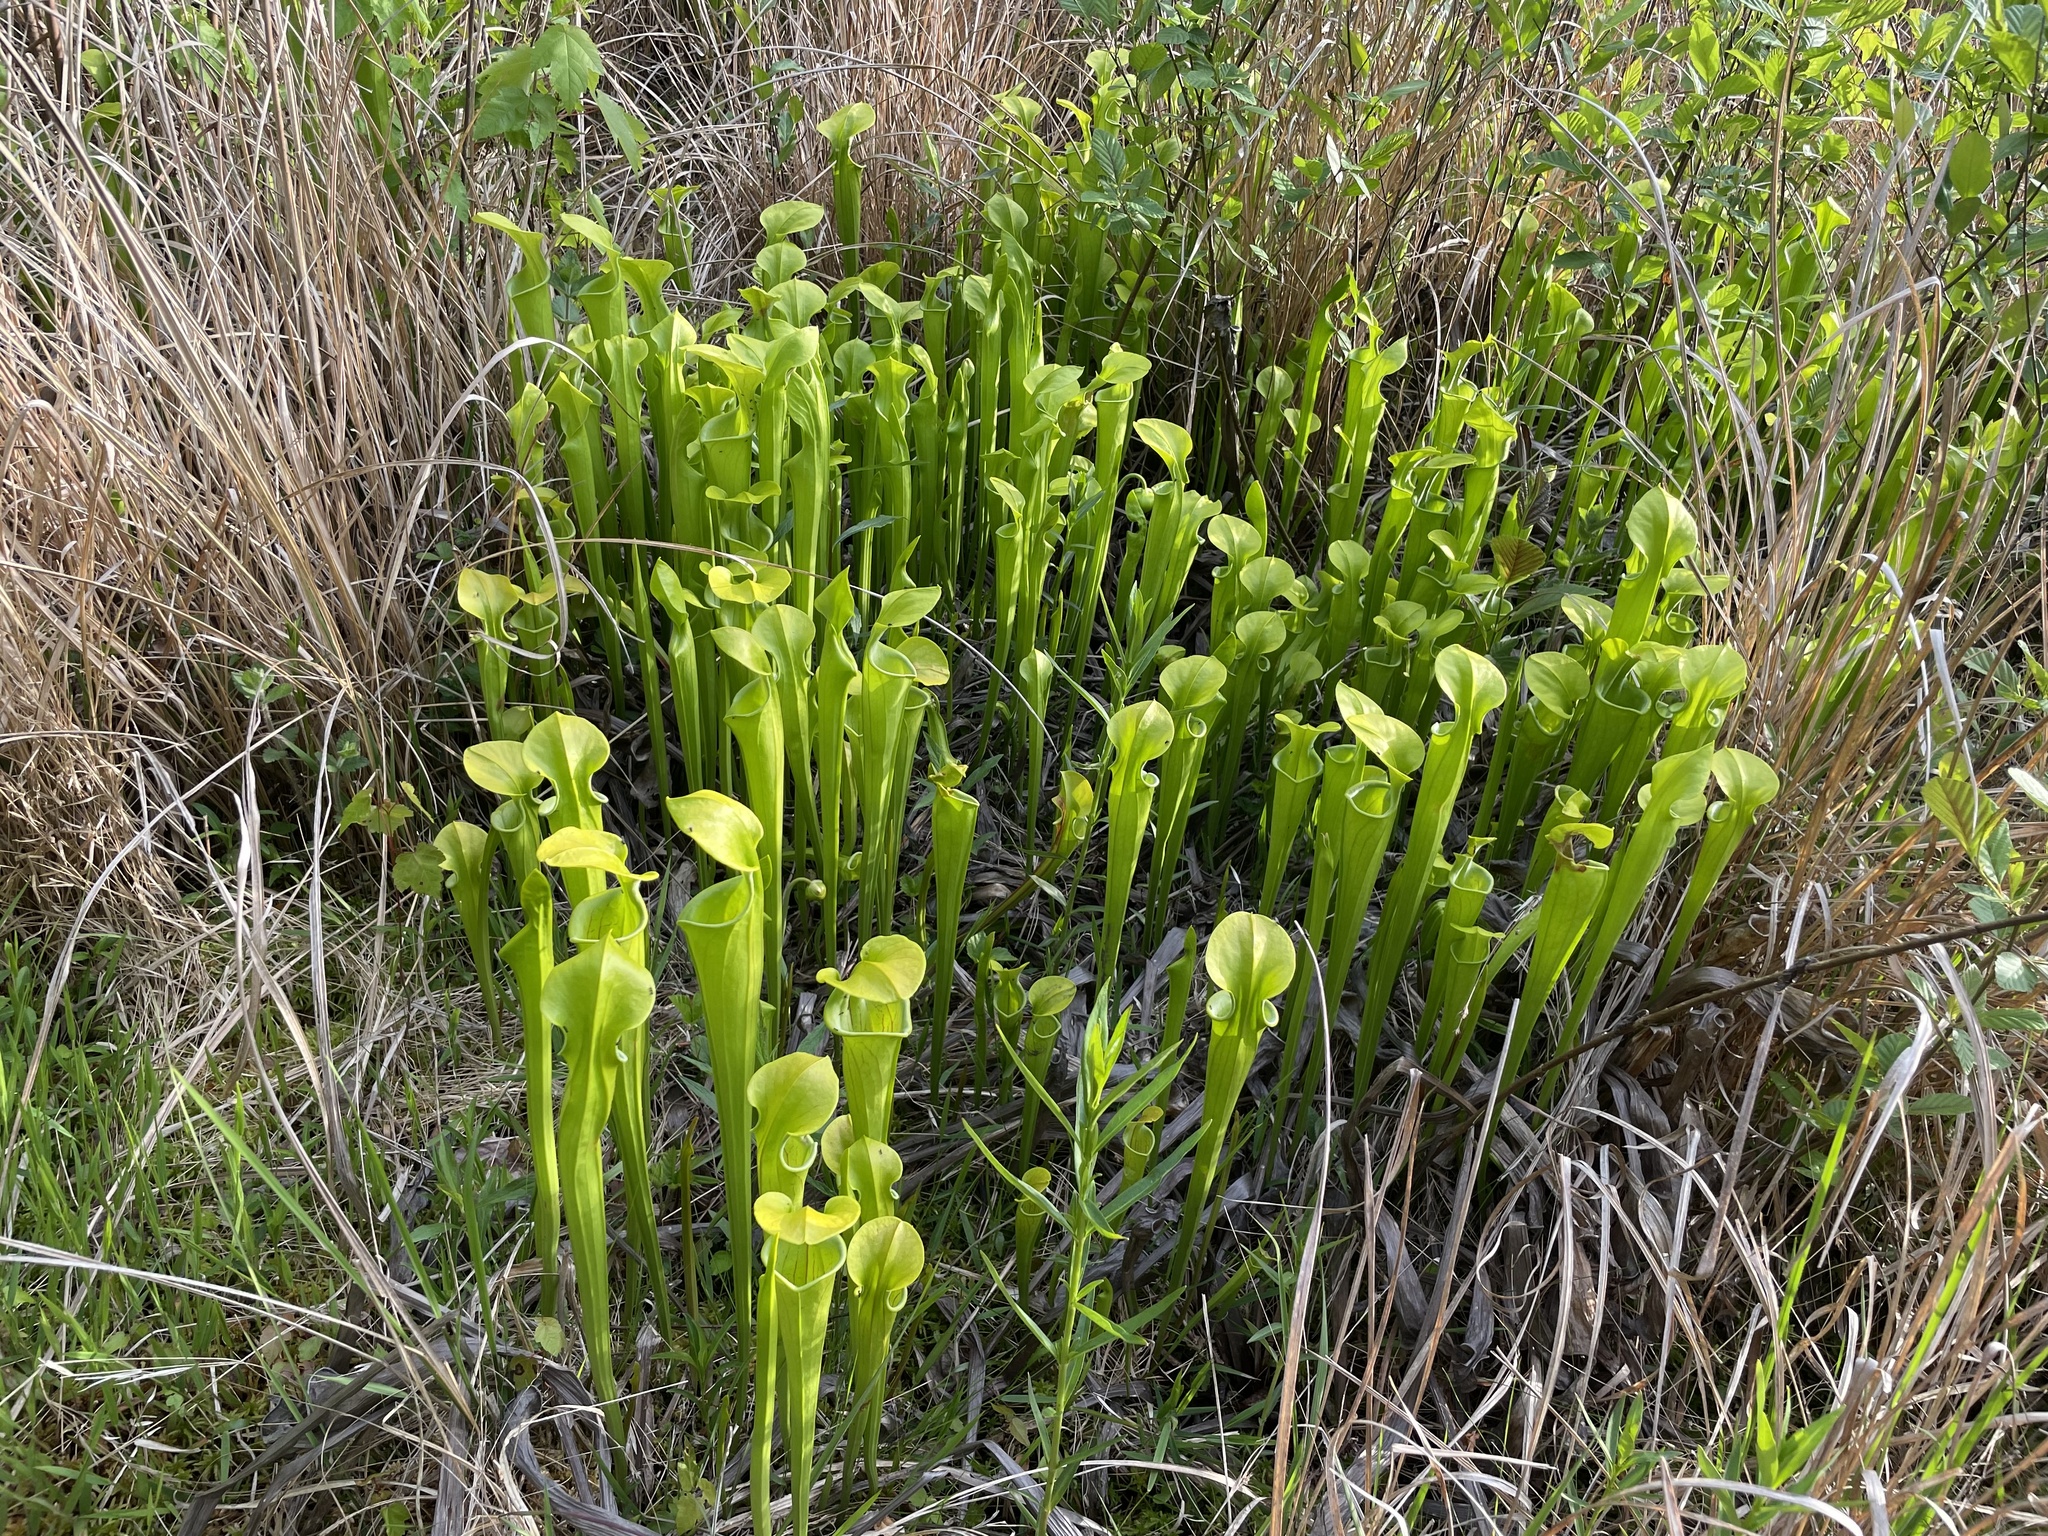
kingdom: Plantae
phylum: Tracheophyta
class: Magnoliopsida
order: Ericales
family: Sarraceniaceae
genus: Sarracenia
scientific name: Sarracenia oreophila
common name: Green pitcherplant
